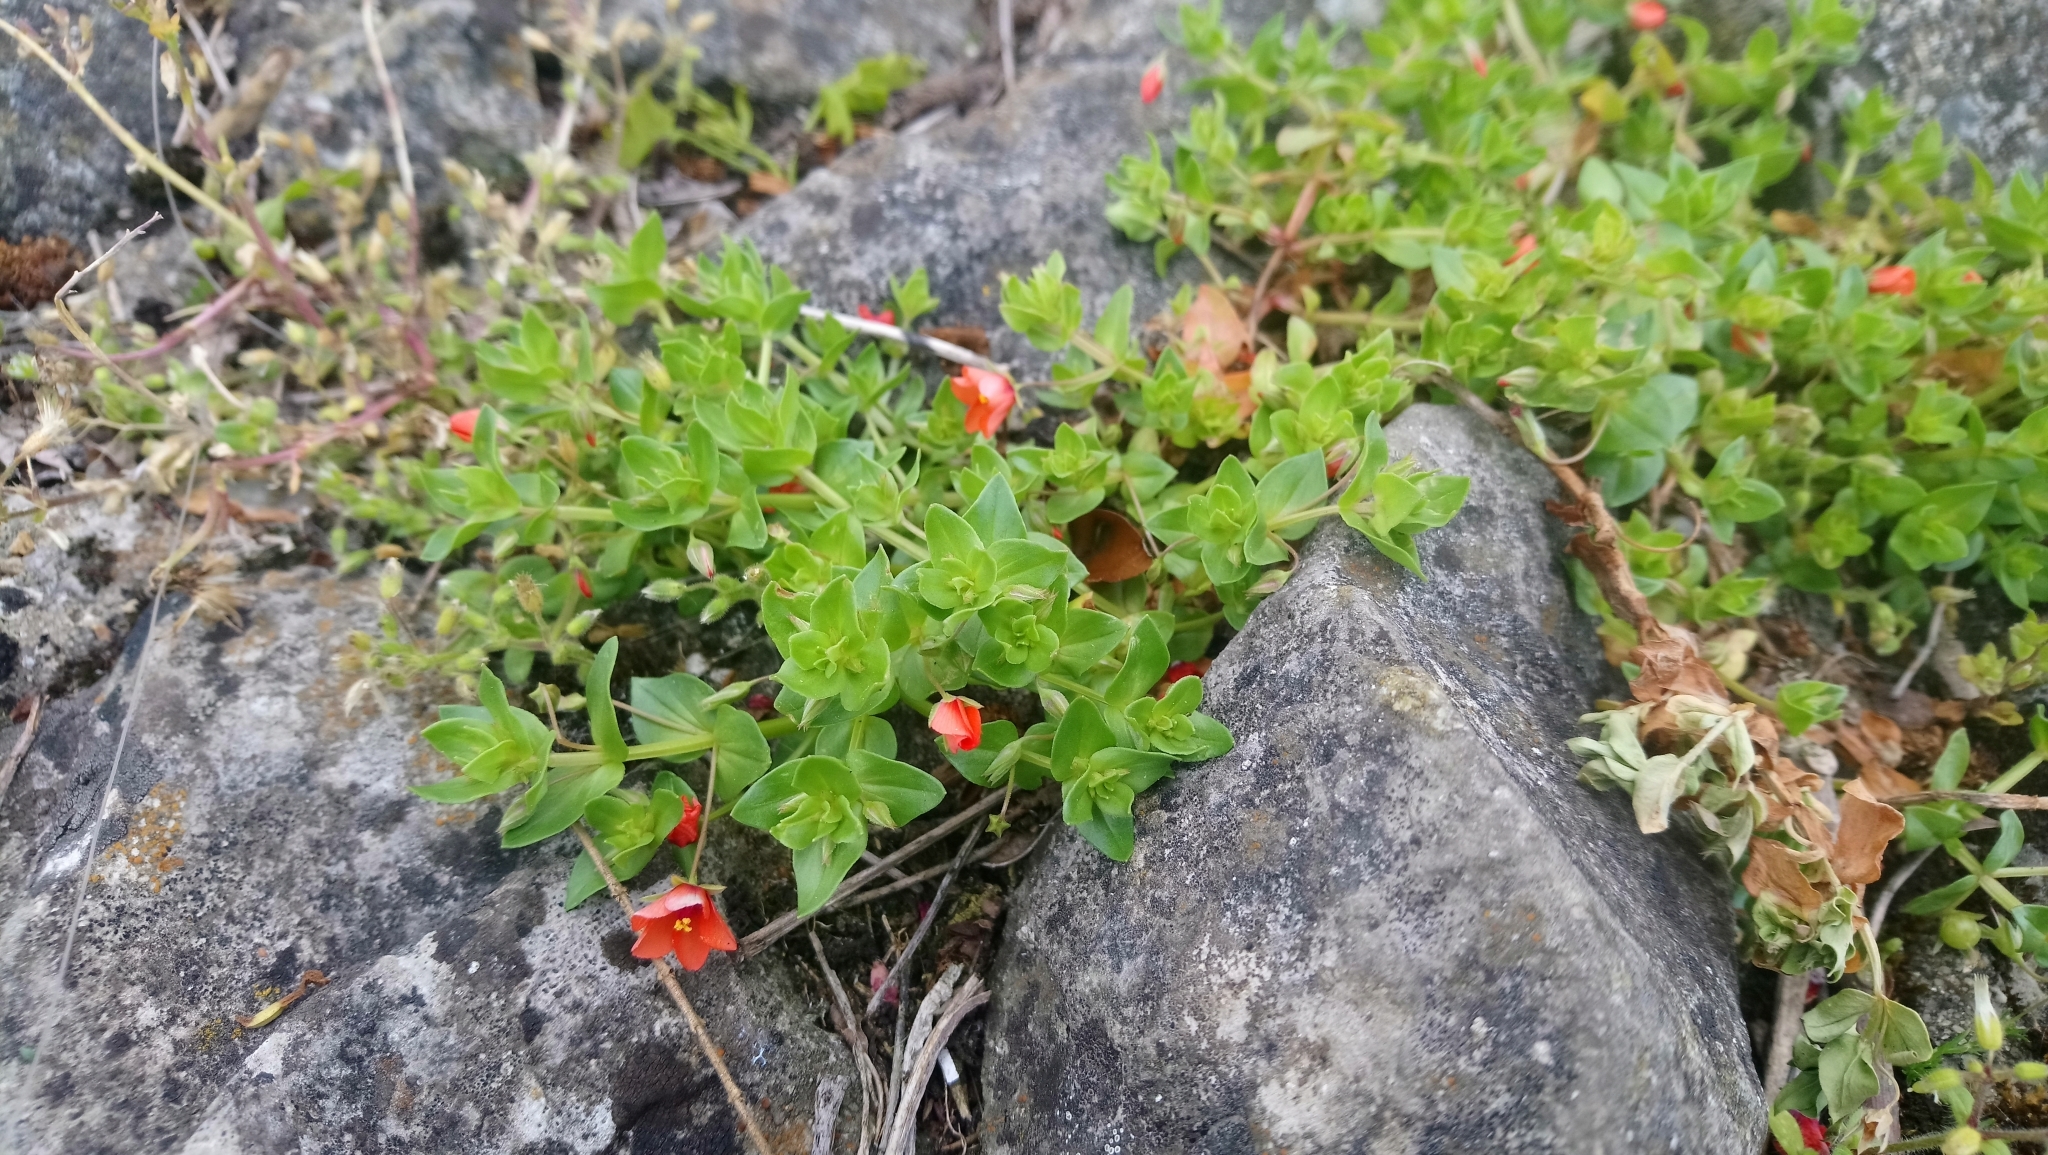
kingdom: Plantae
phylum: Tracheophyta
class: Magnoliopsida
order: Ericales
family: Primulaceae
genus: Lysimachia
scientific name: Lysimachia arvensis
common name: Scarlet pimpernel
